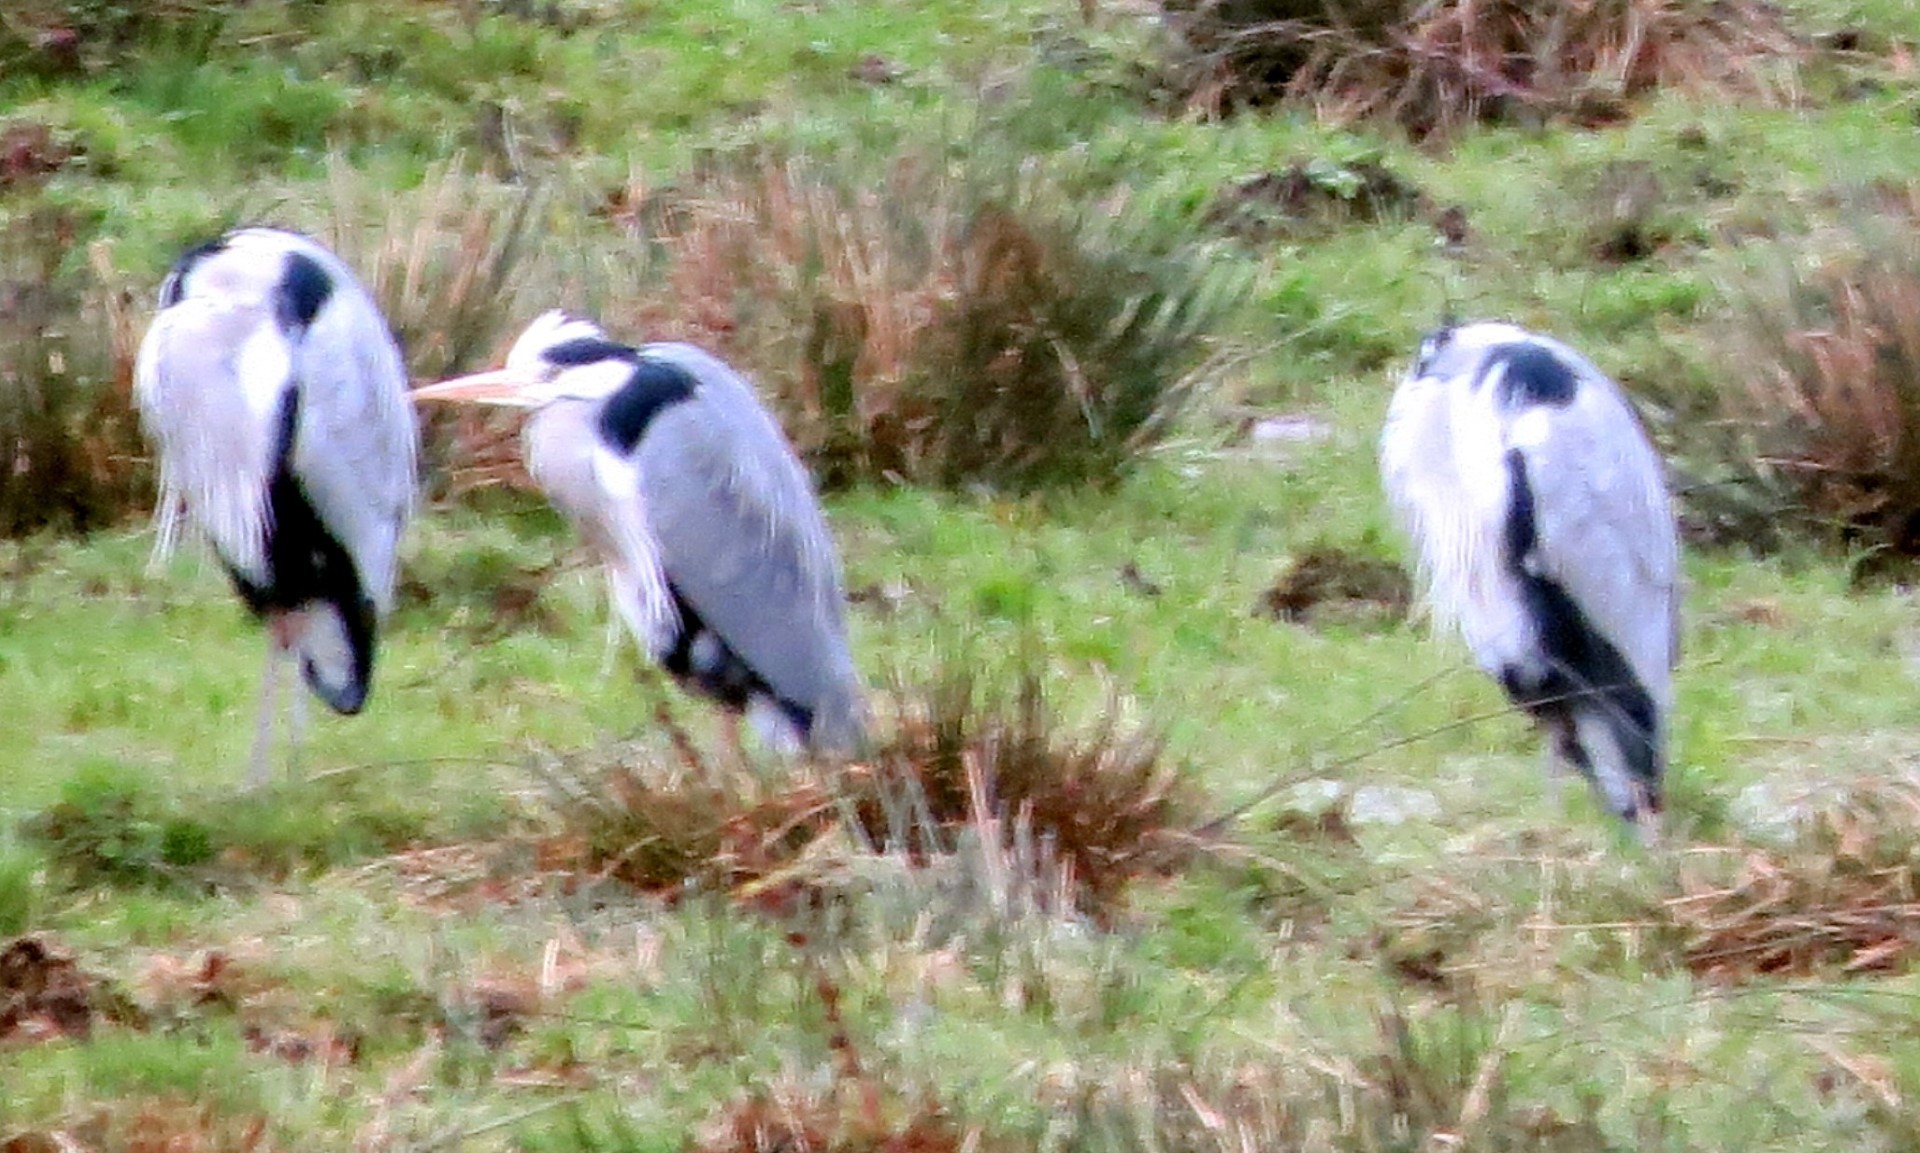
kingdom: Animalia
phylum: Chordata
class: Aves
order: Pelecaniformes
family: Ardeidae
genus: Ardea
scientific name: Ardea cinerea
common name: Grey heron
